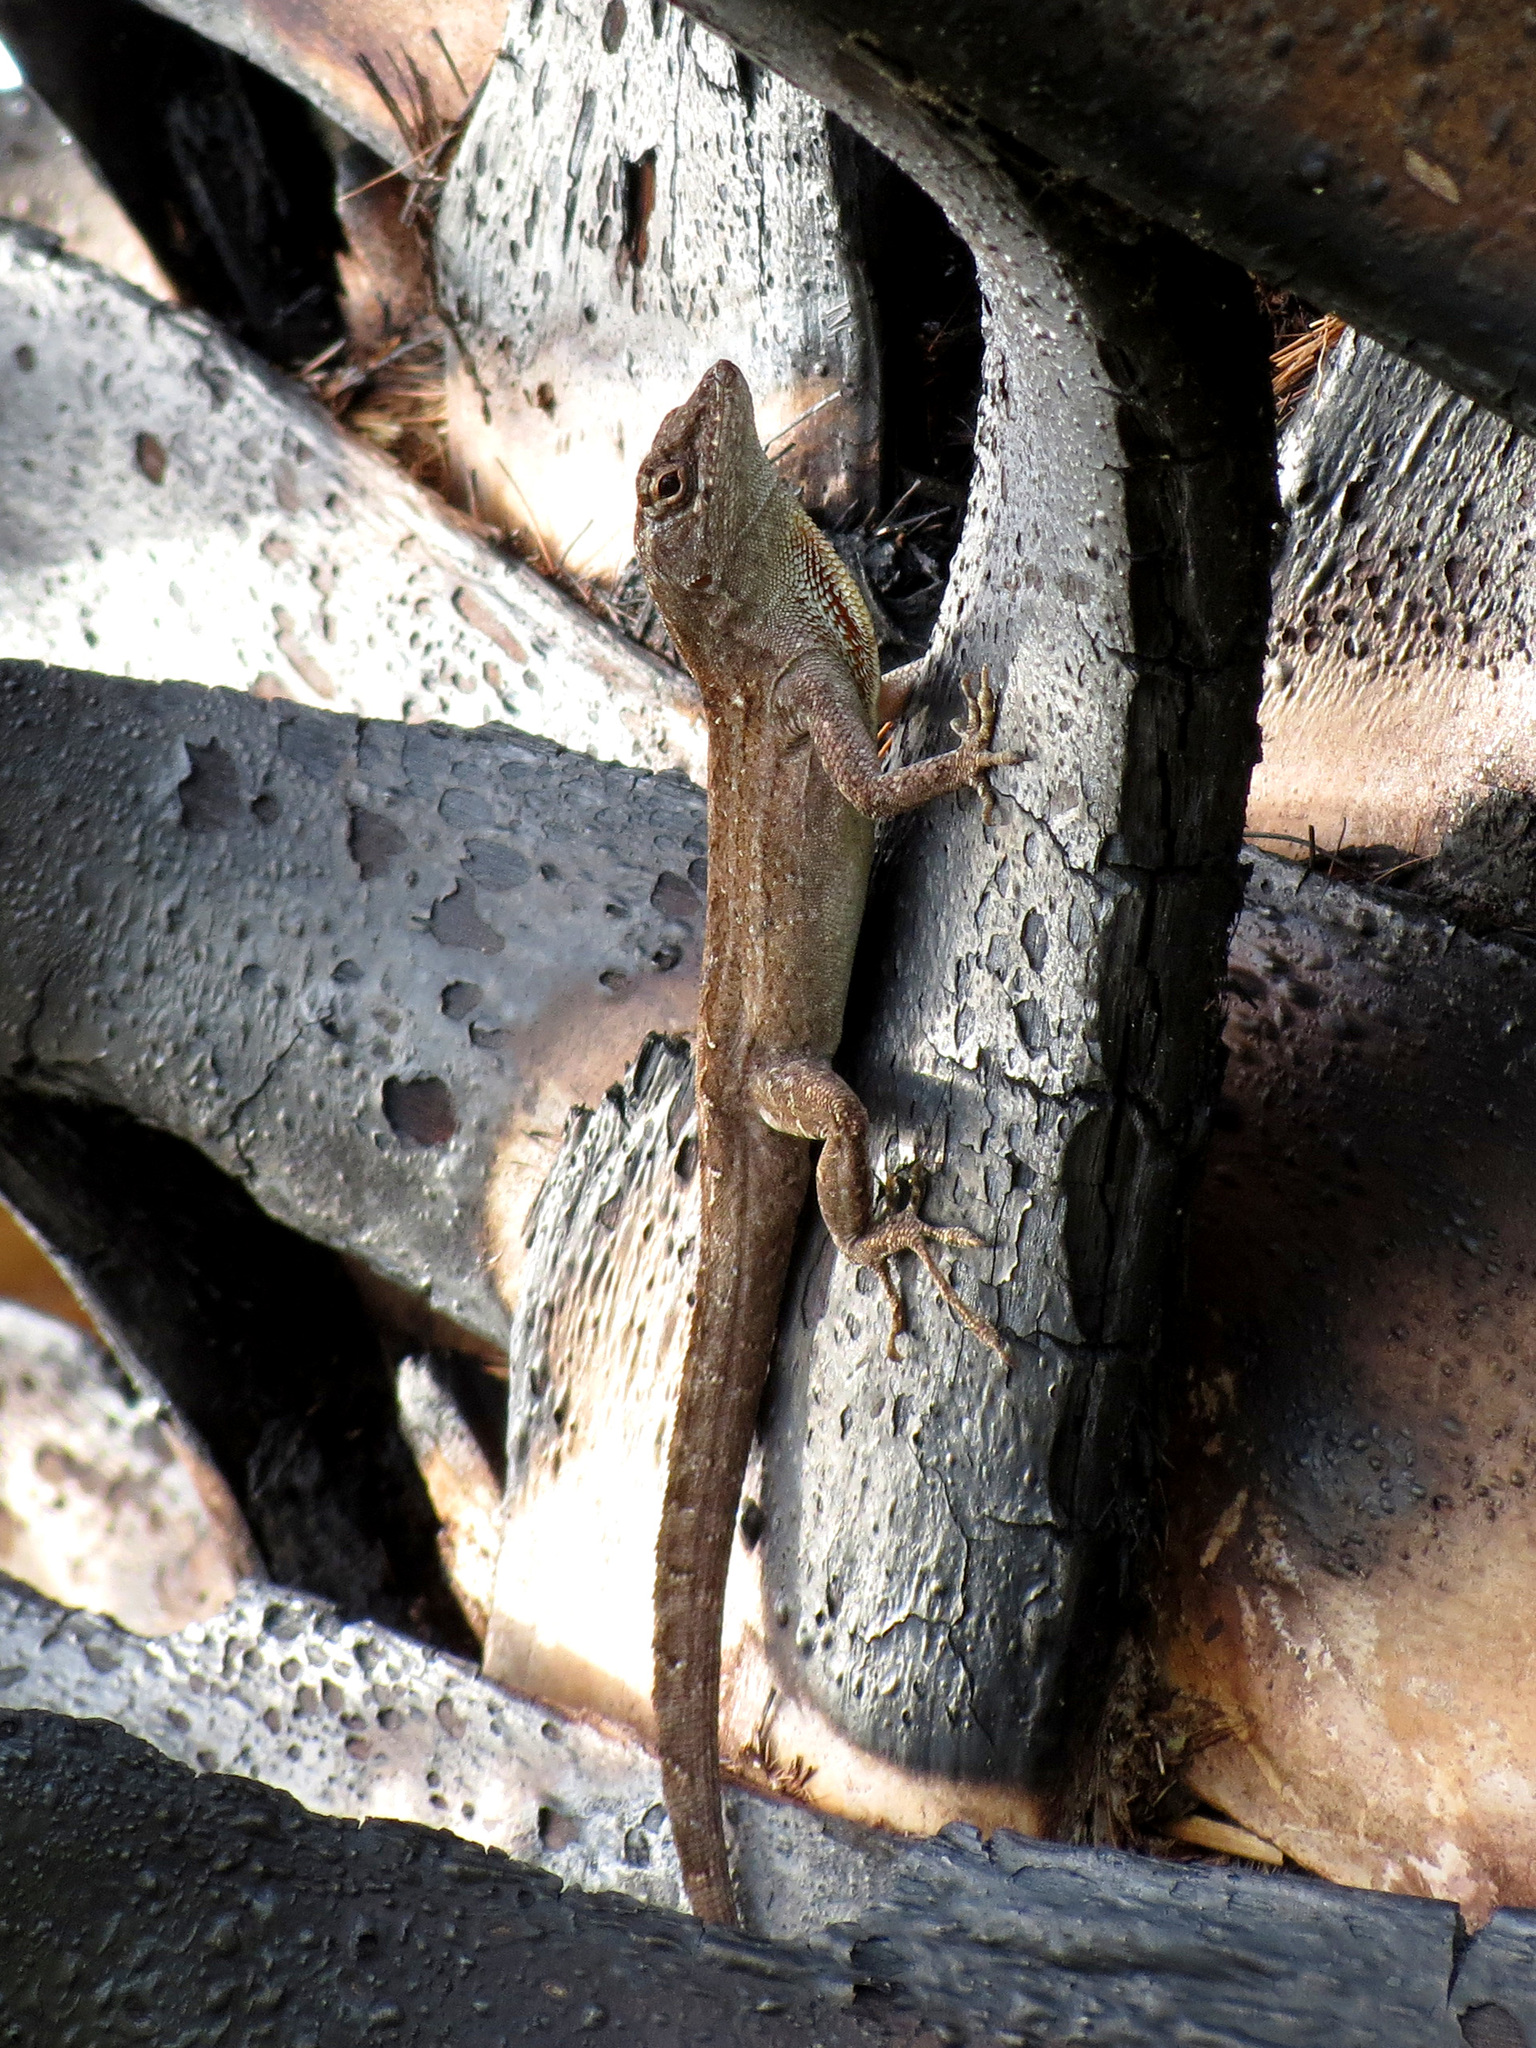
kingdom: Animalia
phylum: Chordata
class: Squamata
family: Dactyloidae
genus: Anolis
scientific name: Anolis sagrei
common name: Brown anole
